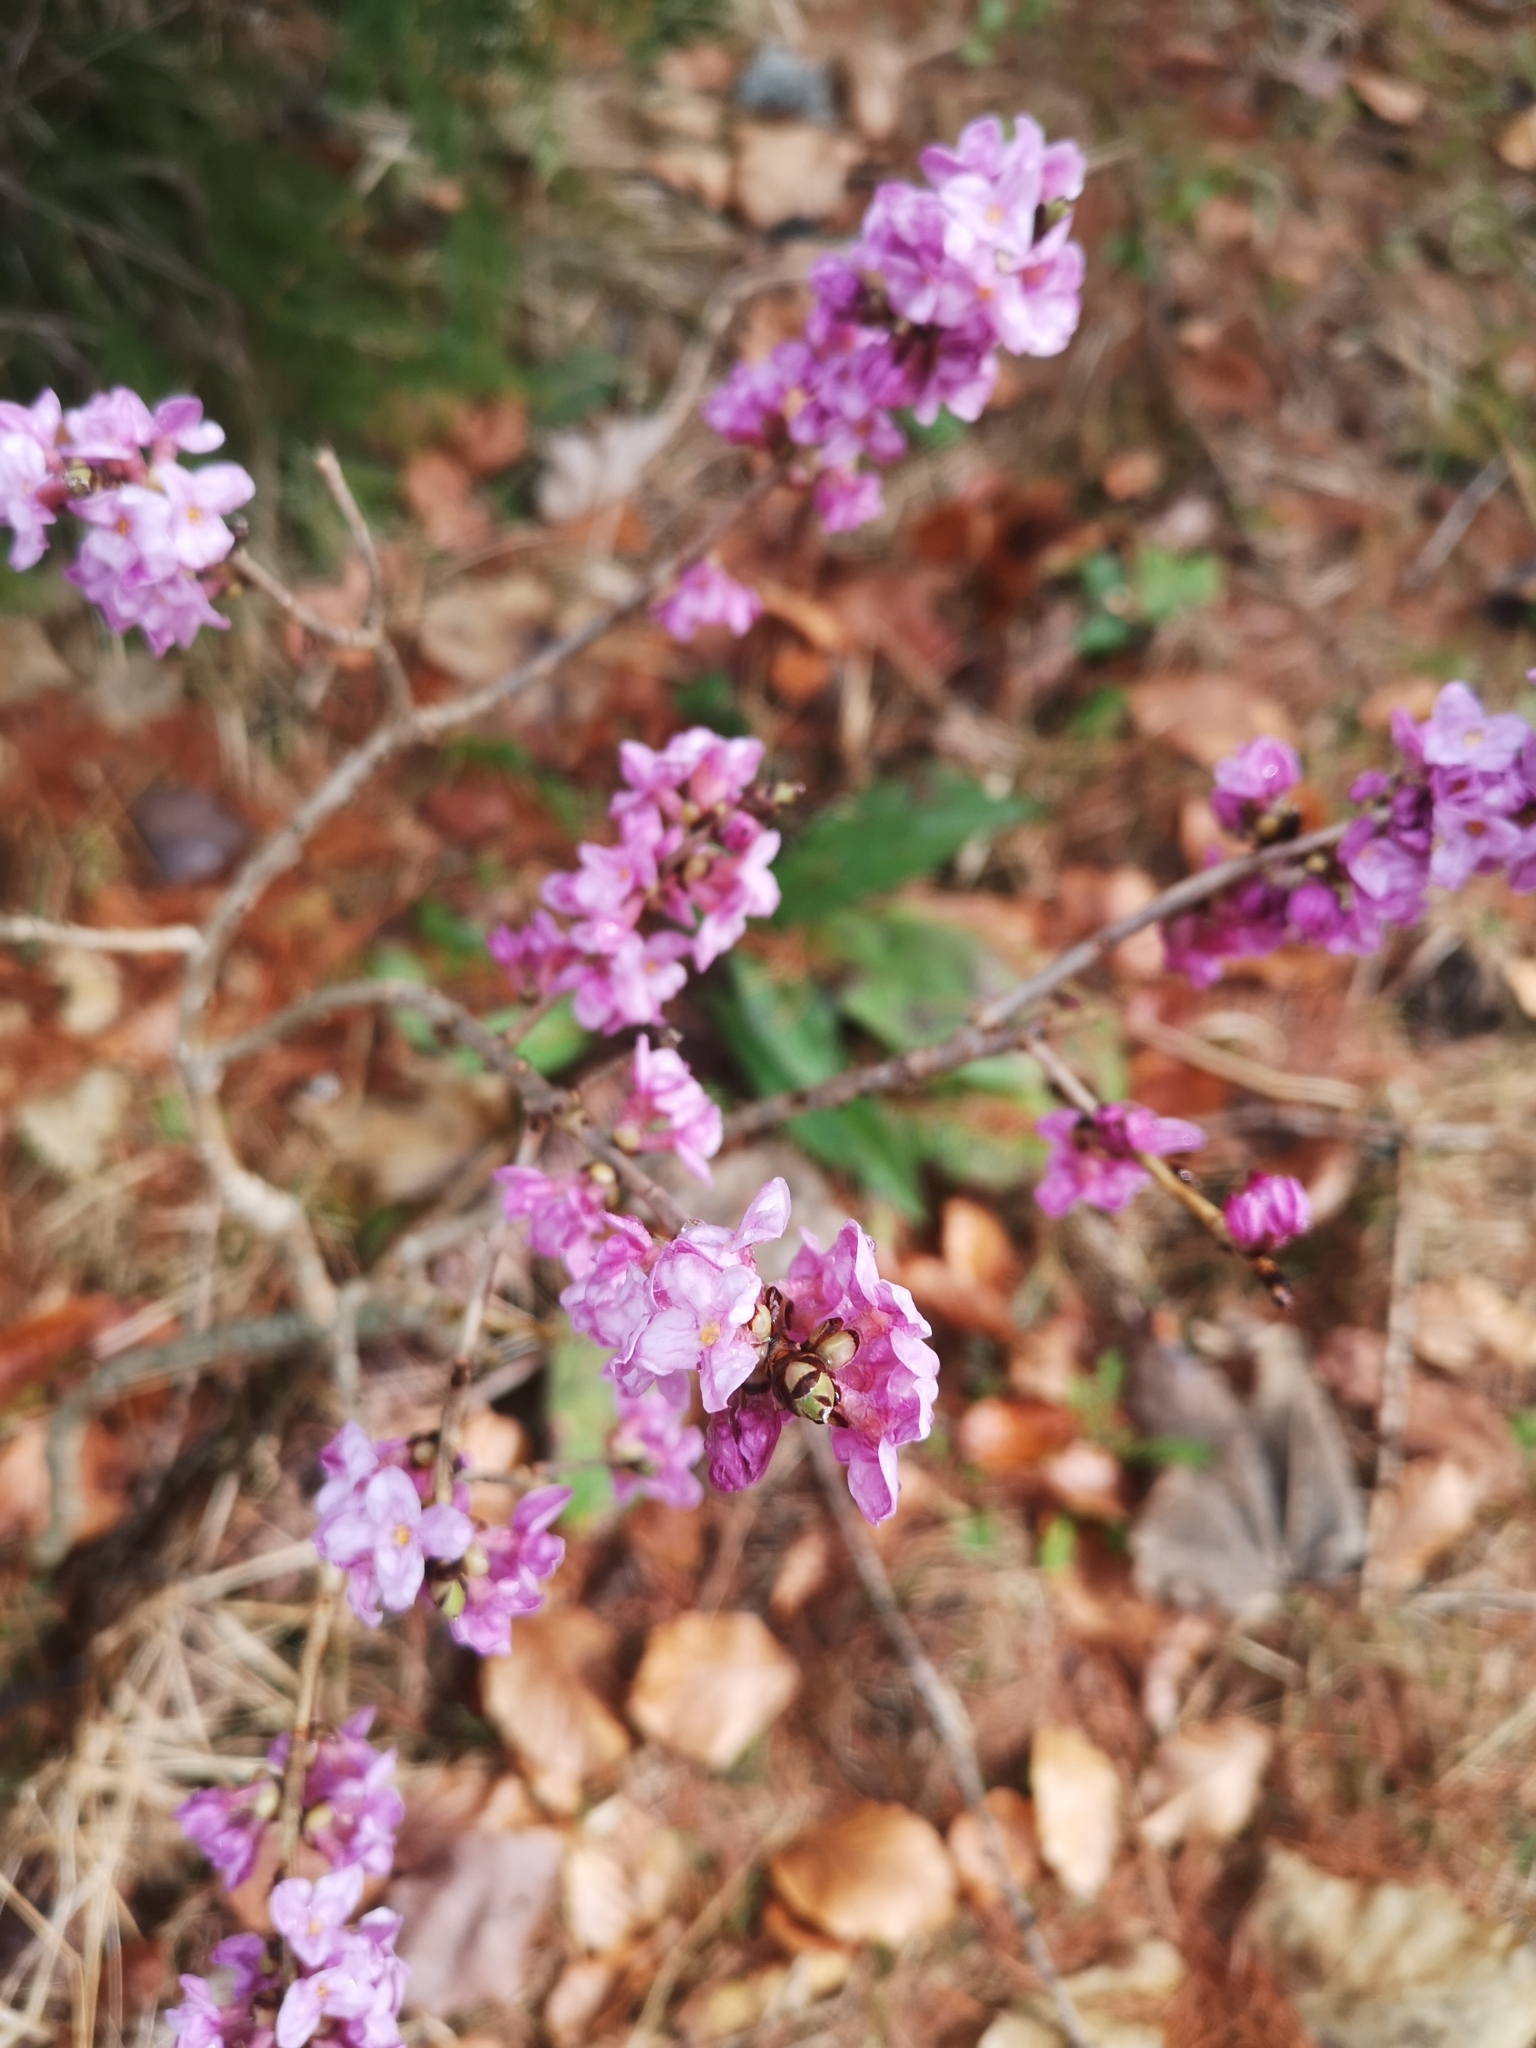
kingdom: Plantae
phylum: Tracheophyta
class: Magnoliopsida
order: Malvales
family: Thymelaeaceae
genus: Daphne
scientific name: Daphne mezereum
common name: Mezereon
